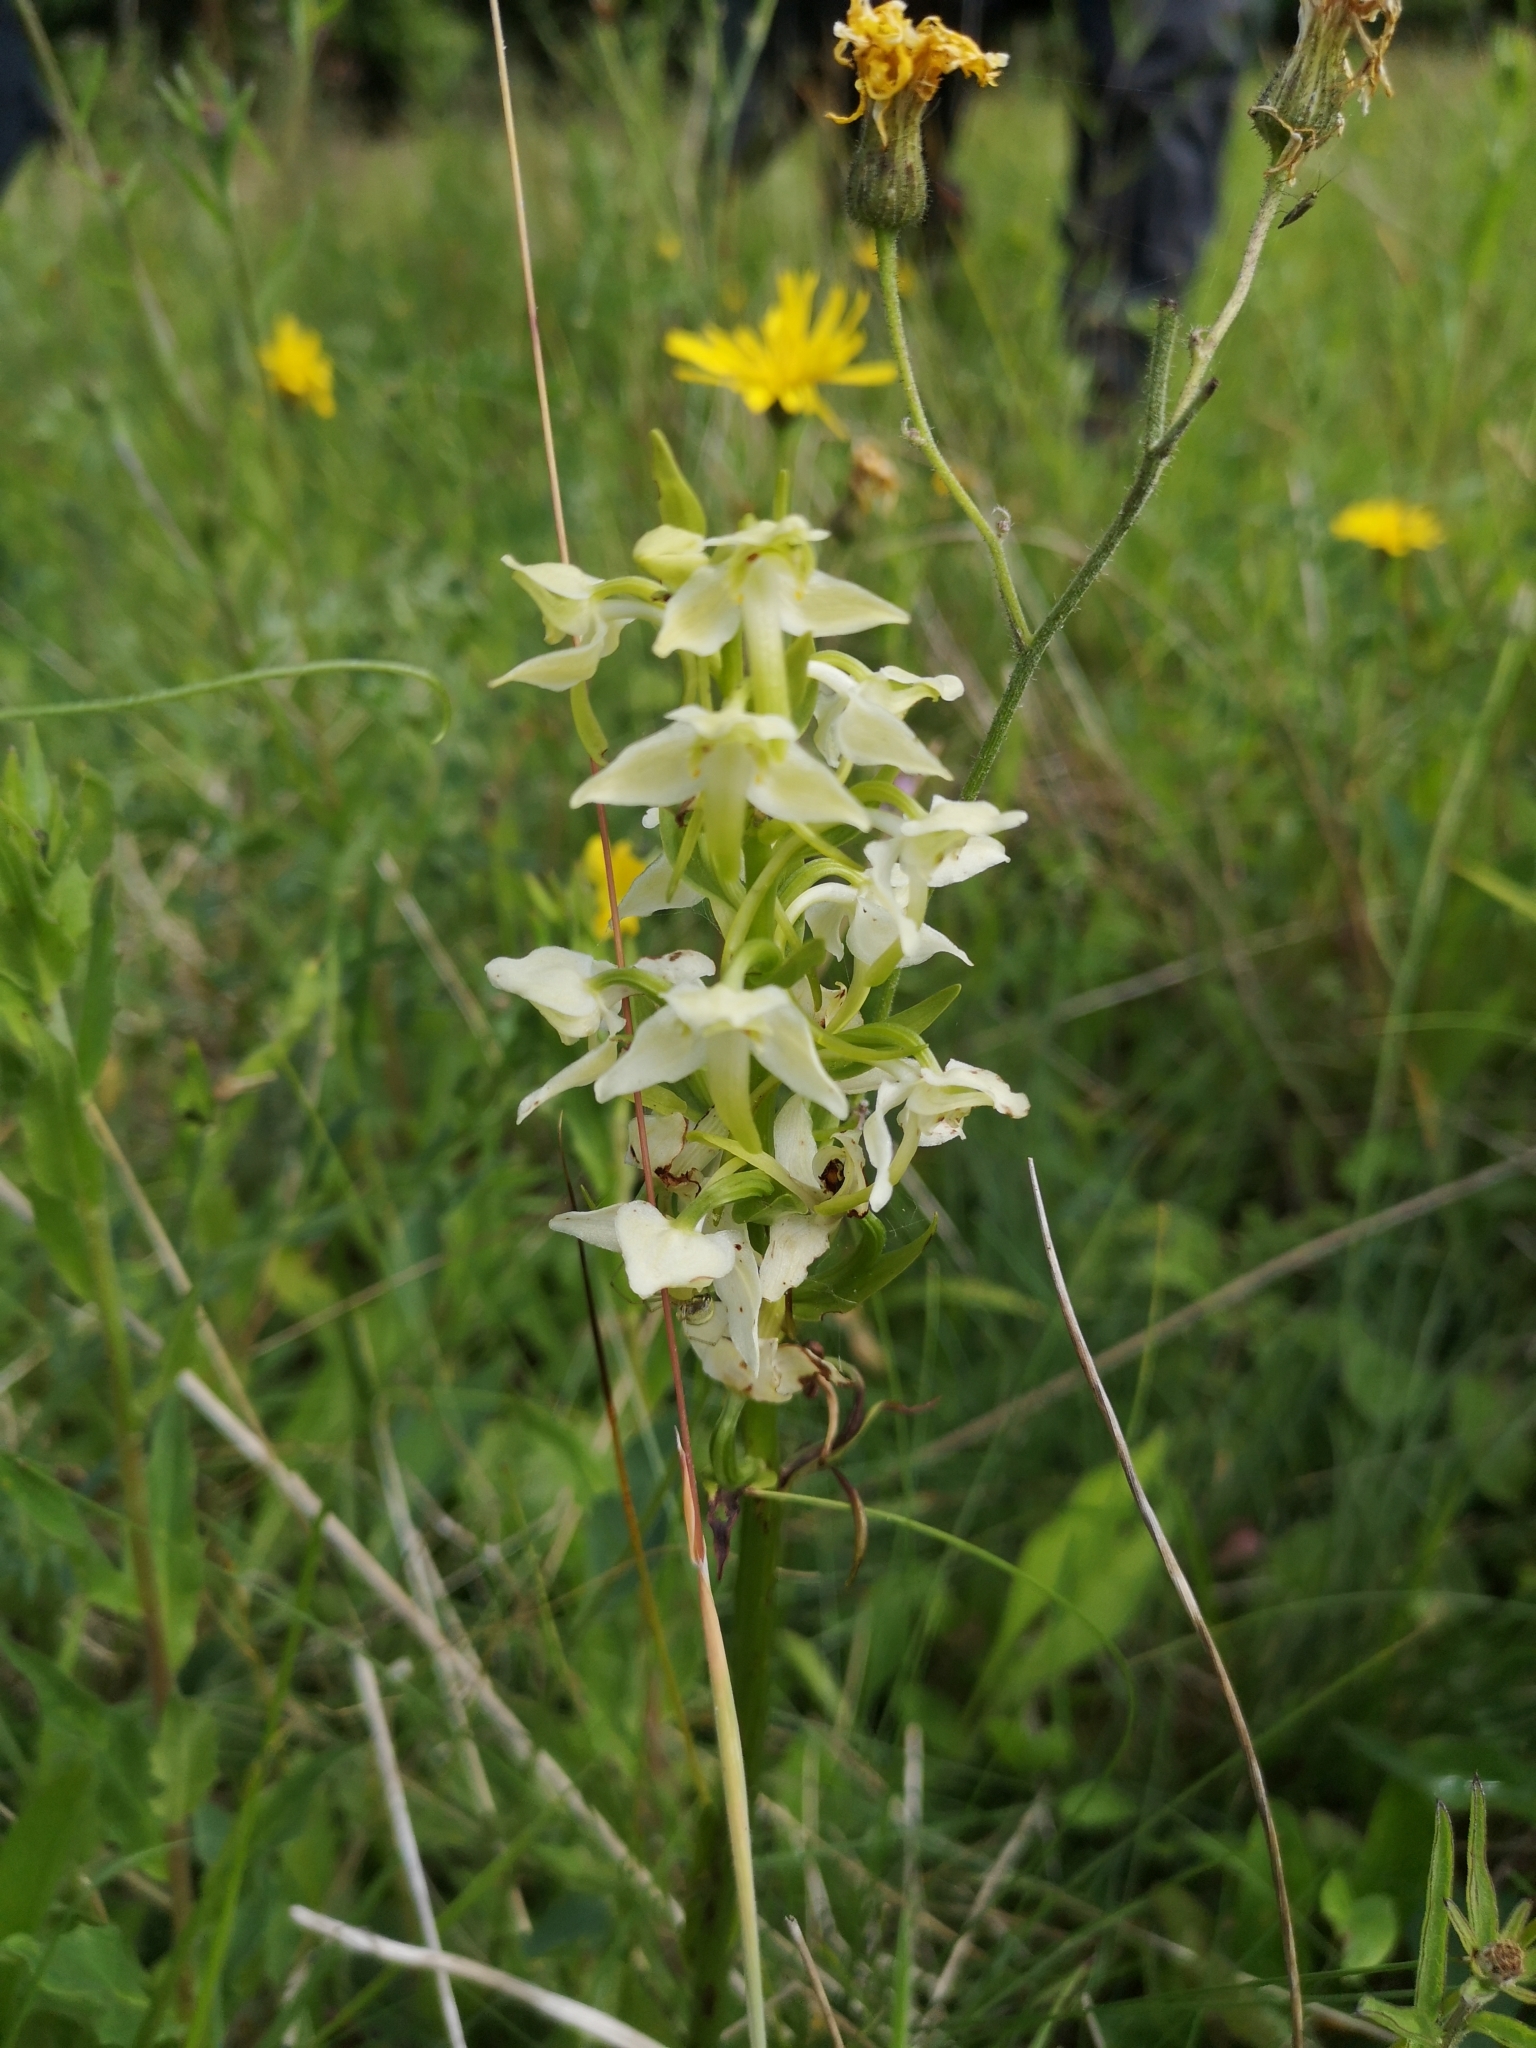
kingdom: Plantae
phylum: Tracheophyta
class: Liliopsida
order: Asparagales
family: Orchidaceae
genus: Platanthera
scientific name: Platanthera chlorantha
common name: Greater butterfly-orchid
